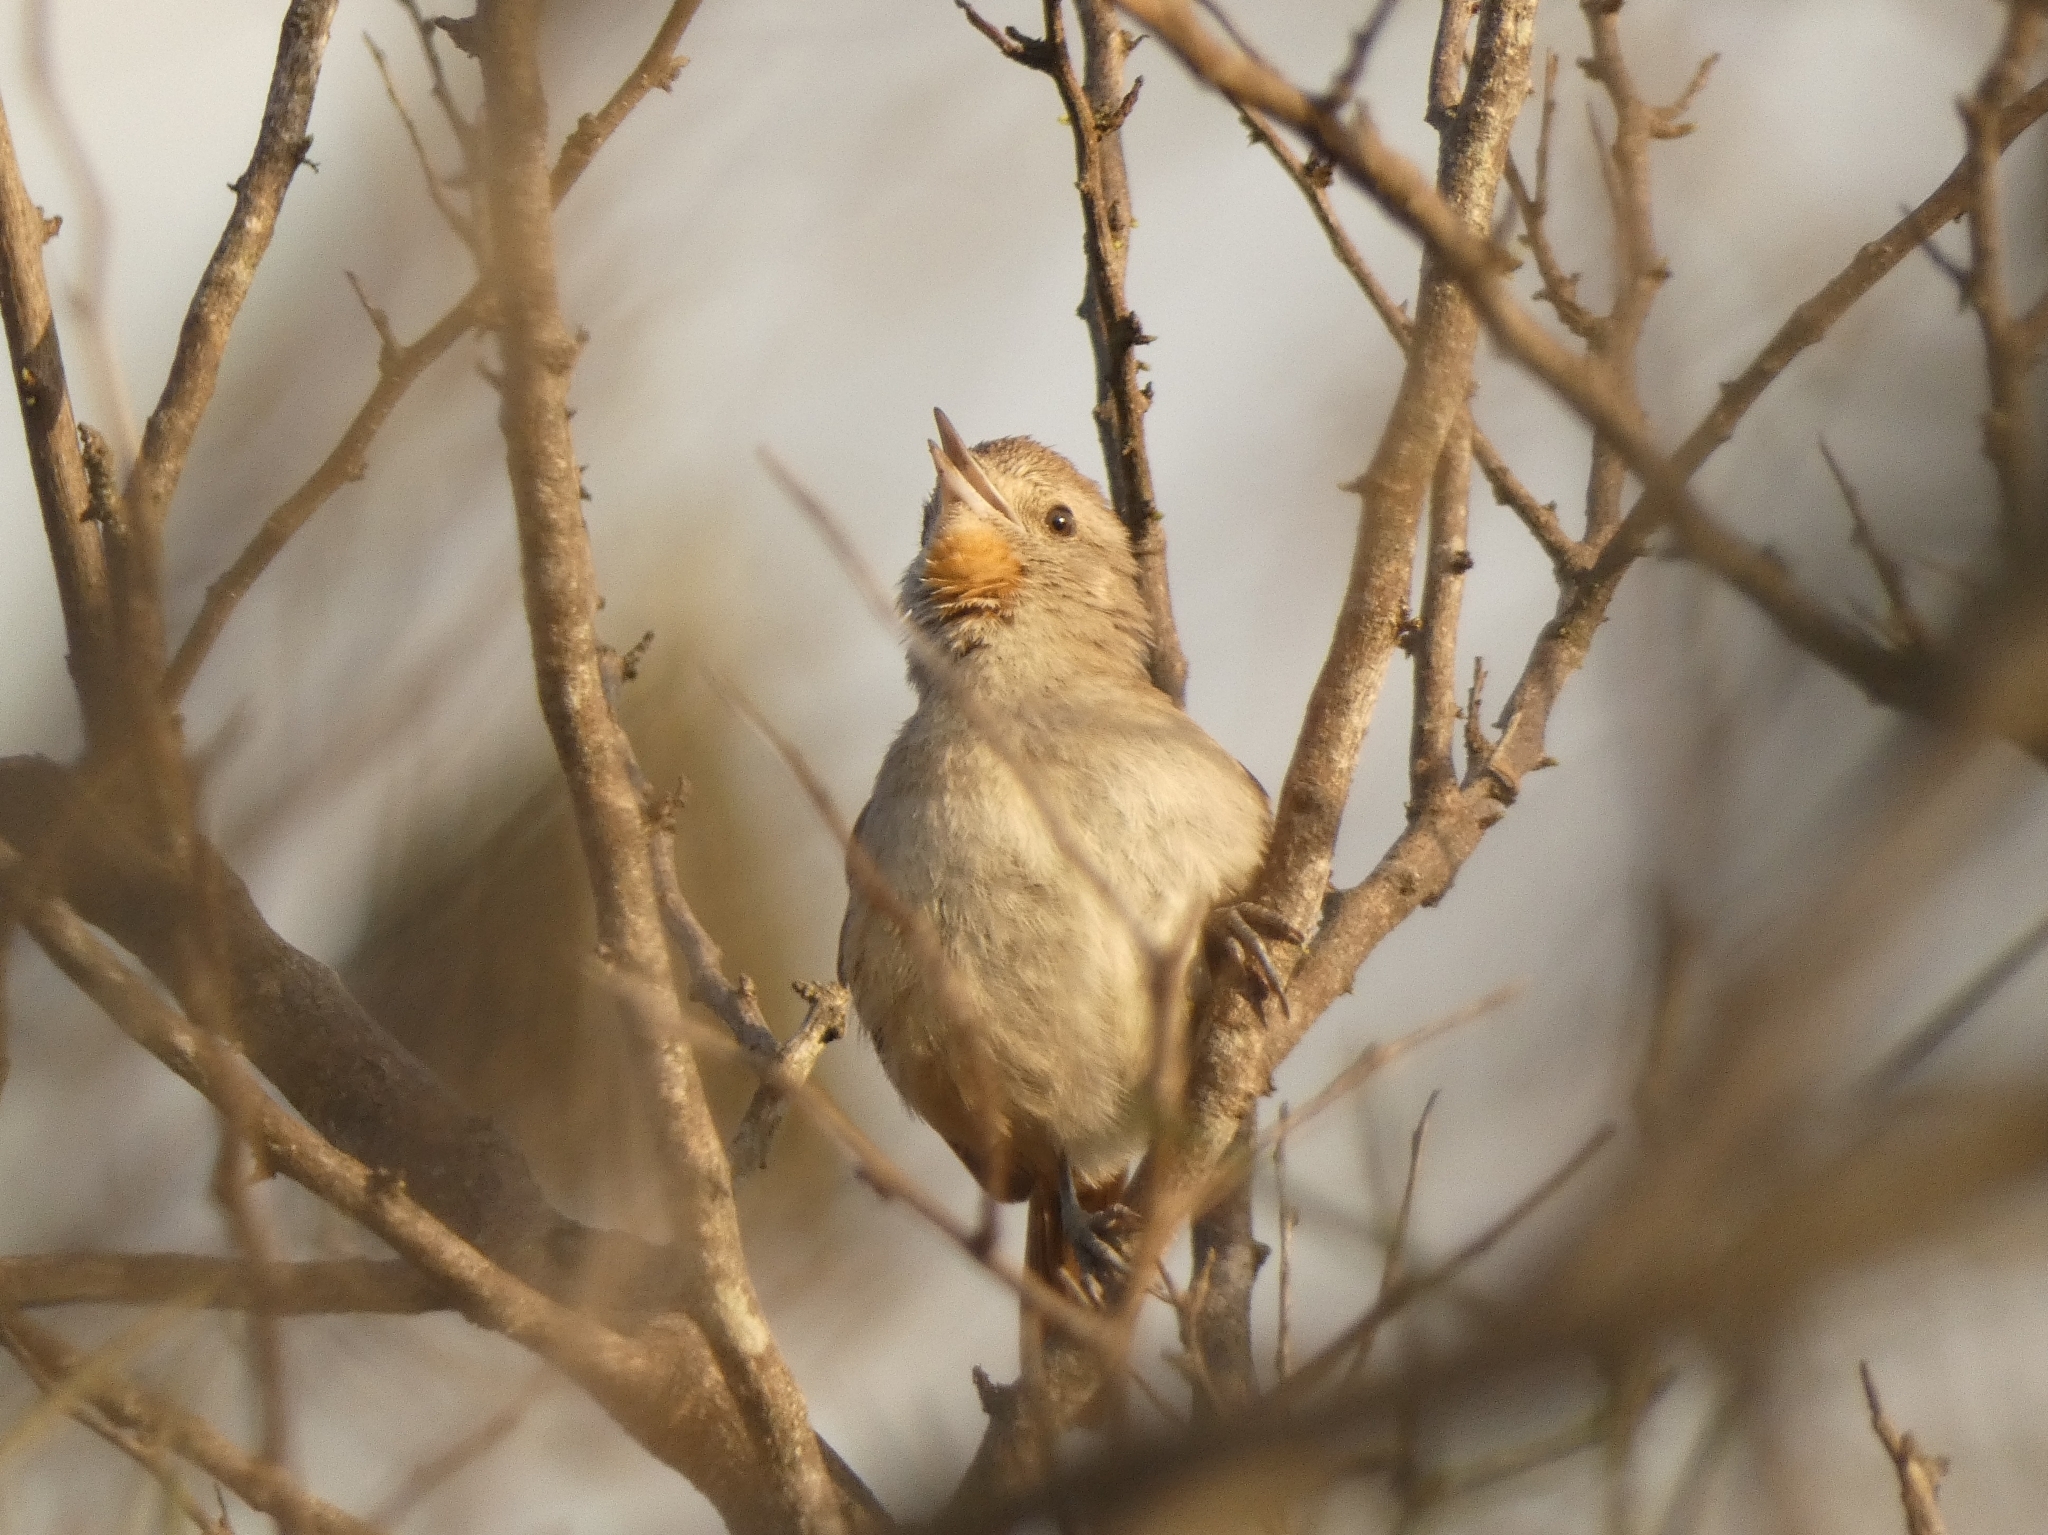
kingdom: Animalia
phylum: Chordata
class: Aves
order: Passeriformes
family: Furnariidae
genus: Asthenes
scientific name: Asthenes baeri
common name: Short-billed canastero
